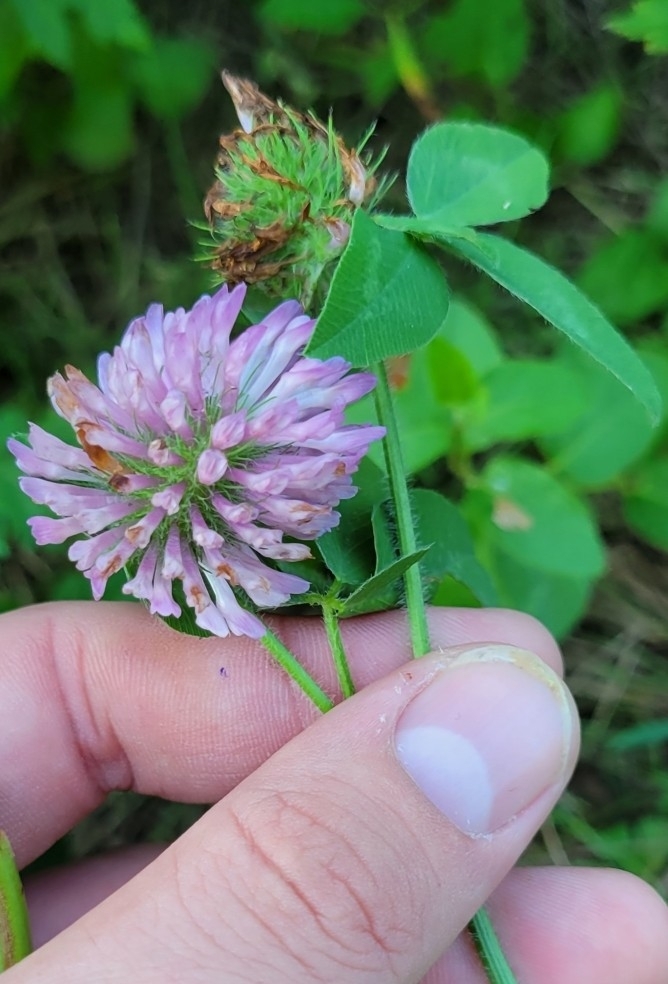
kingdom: Plantae
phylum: Tracheophyta
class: Magnoliopsida
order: Fabales
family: Fabaceae
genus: Trifolium
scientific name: Trifolium pratense
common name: Red clover
